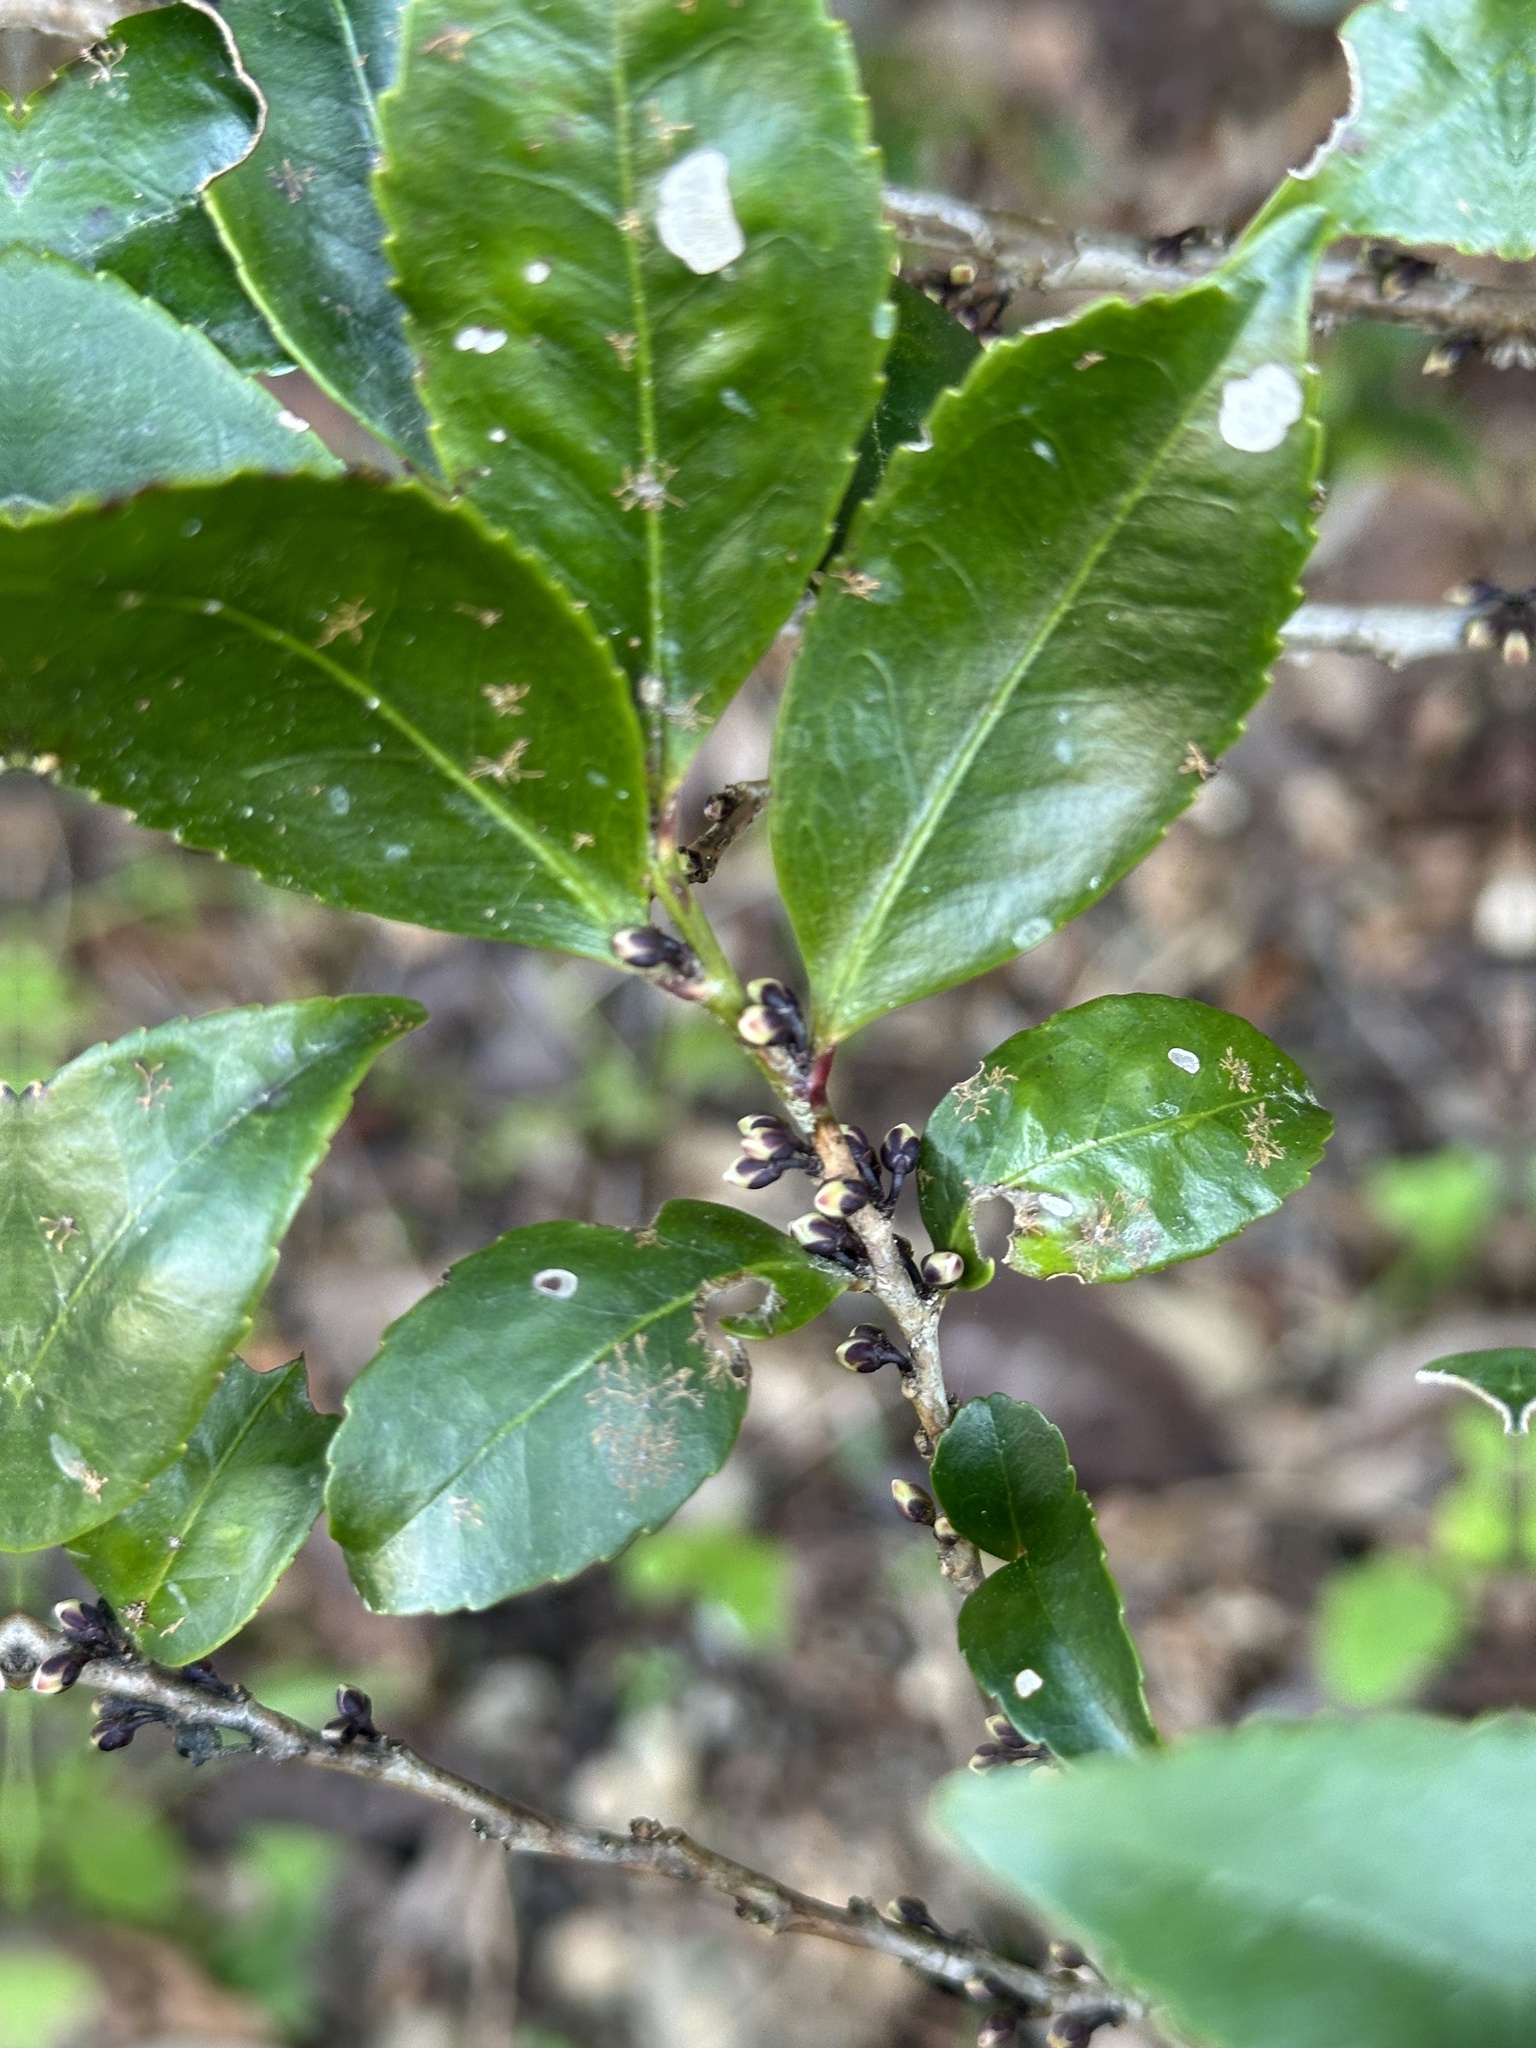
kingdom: Plantae
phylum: Tracheophyta
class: Magnoliopsida
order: Ericales
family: Pentaphylacaceae
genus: Eurya
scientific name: Eurya japonica
